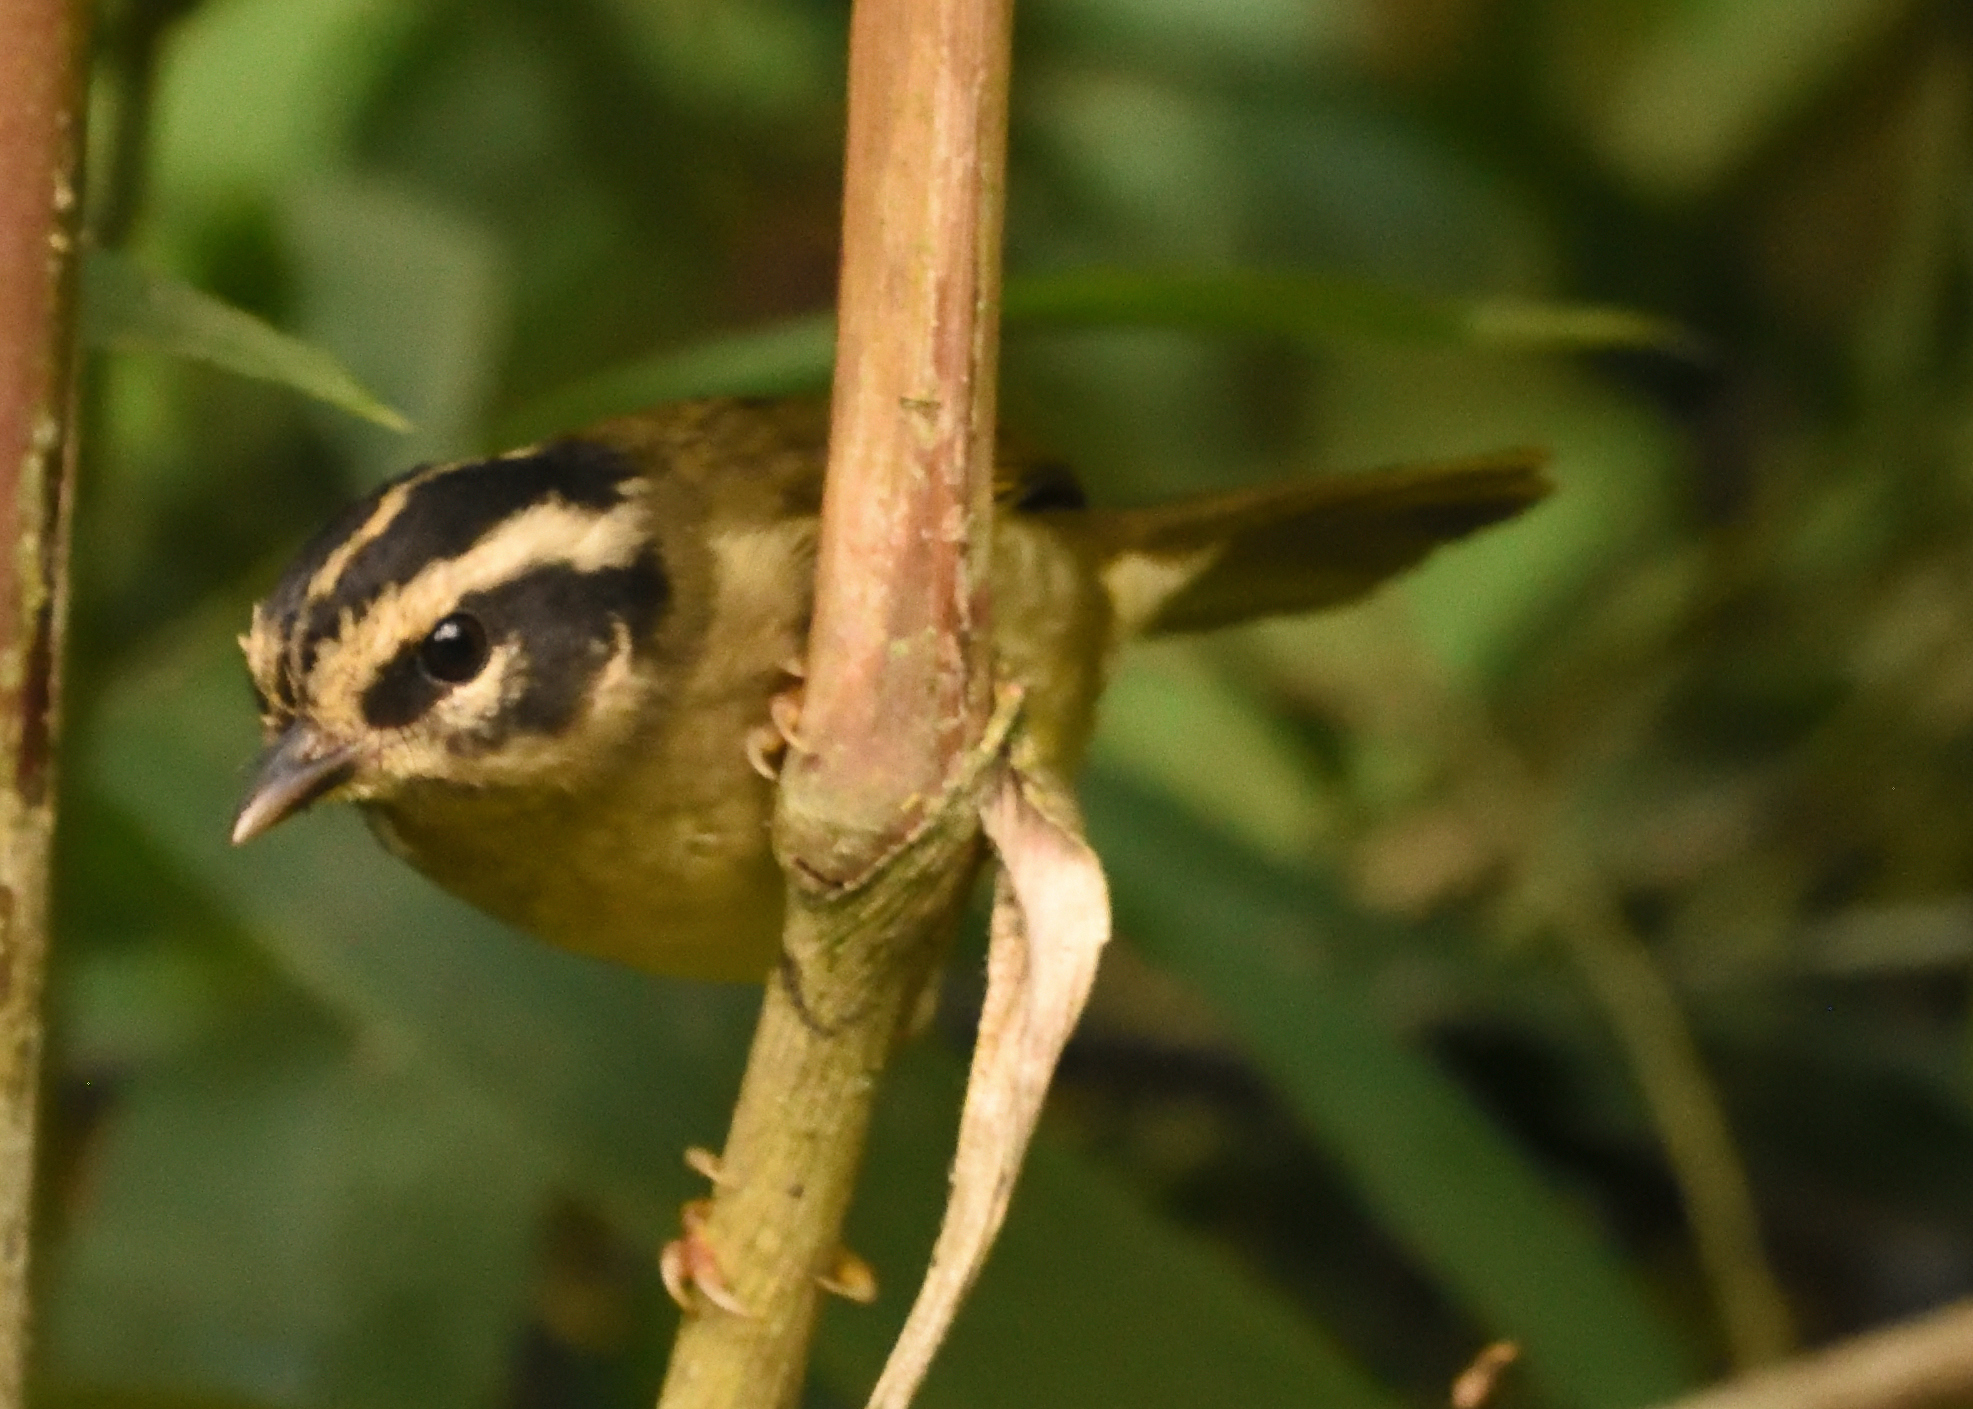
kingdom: Animalia
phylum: Chordata
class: Aves
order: Passeriformes
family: Parulidae
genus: Basileuterus
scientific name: Basileuterus tristriatus
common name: Three-striped warbler
